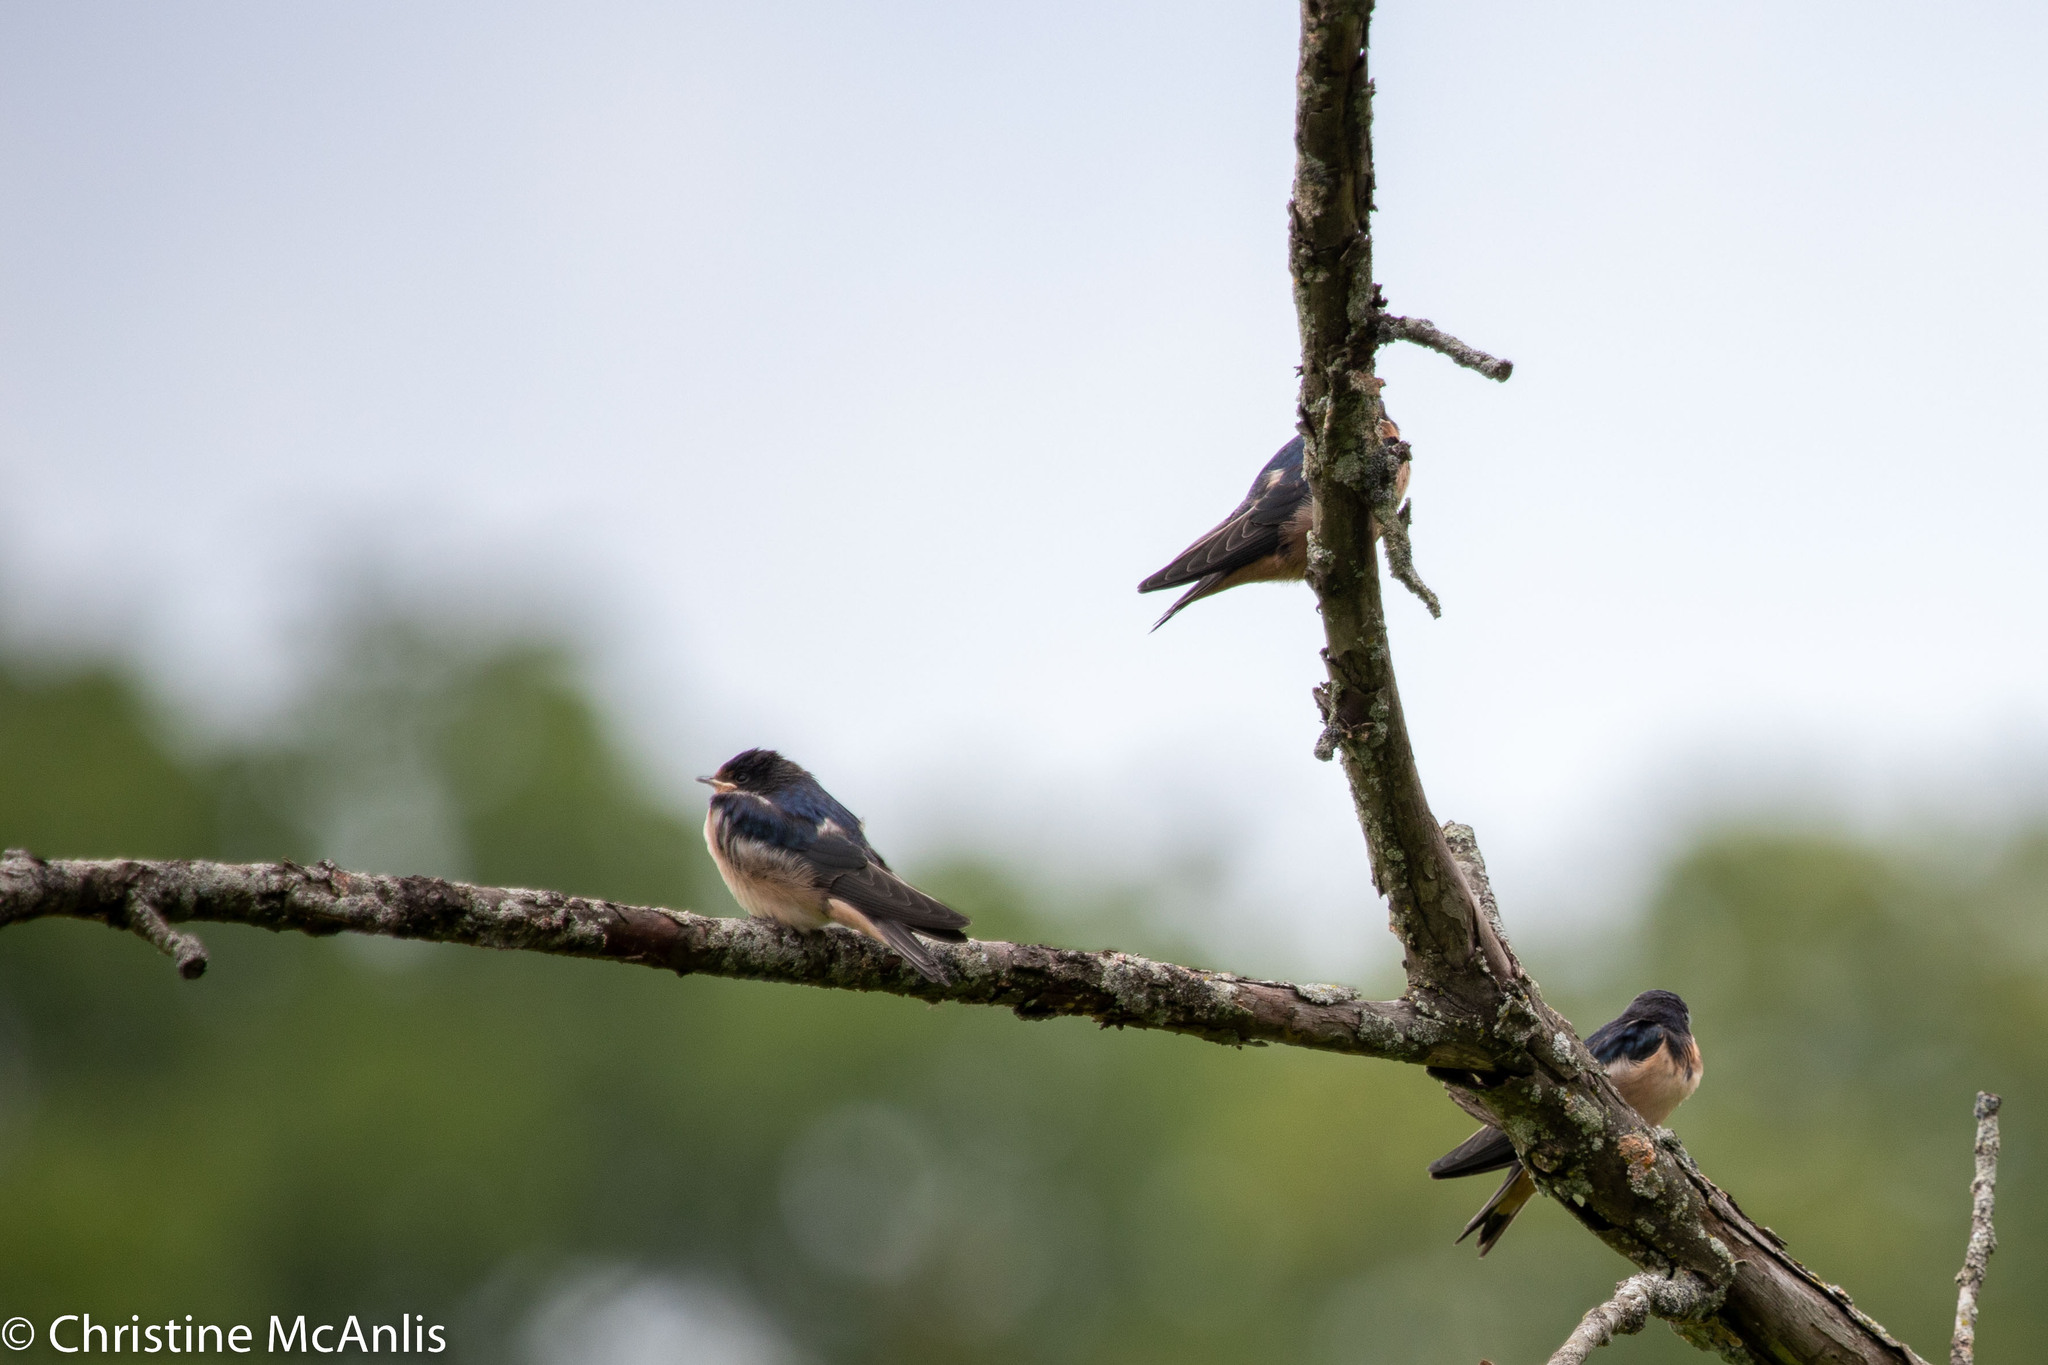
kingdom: Animalia
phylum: Chordata
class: Aves
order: Passeriformes
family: Hirundinidae
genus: Hirundo
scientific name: Hirundo rustica
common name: Barn swallow
